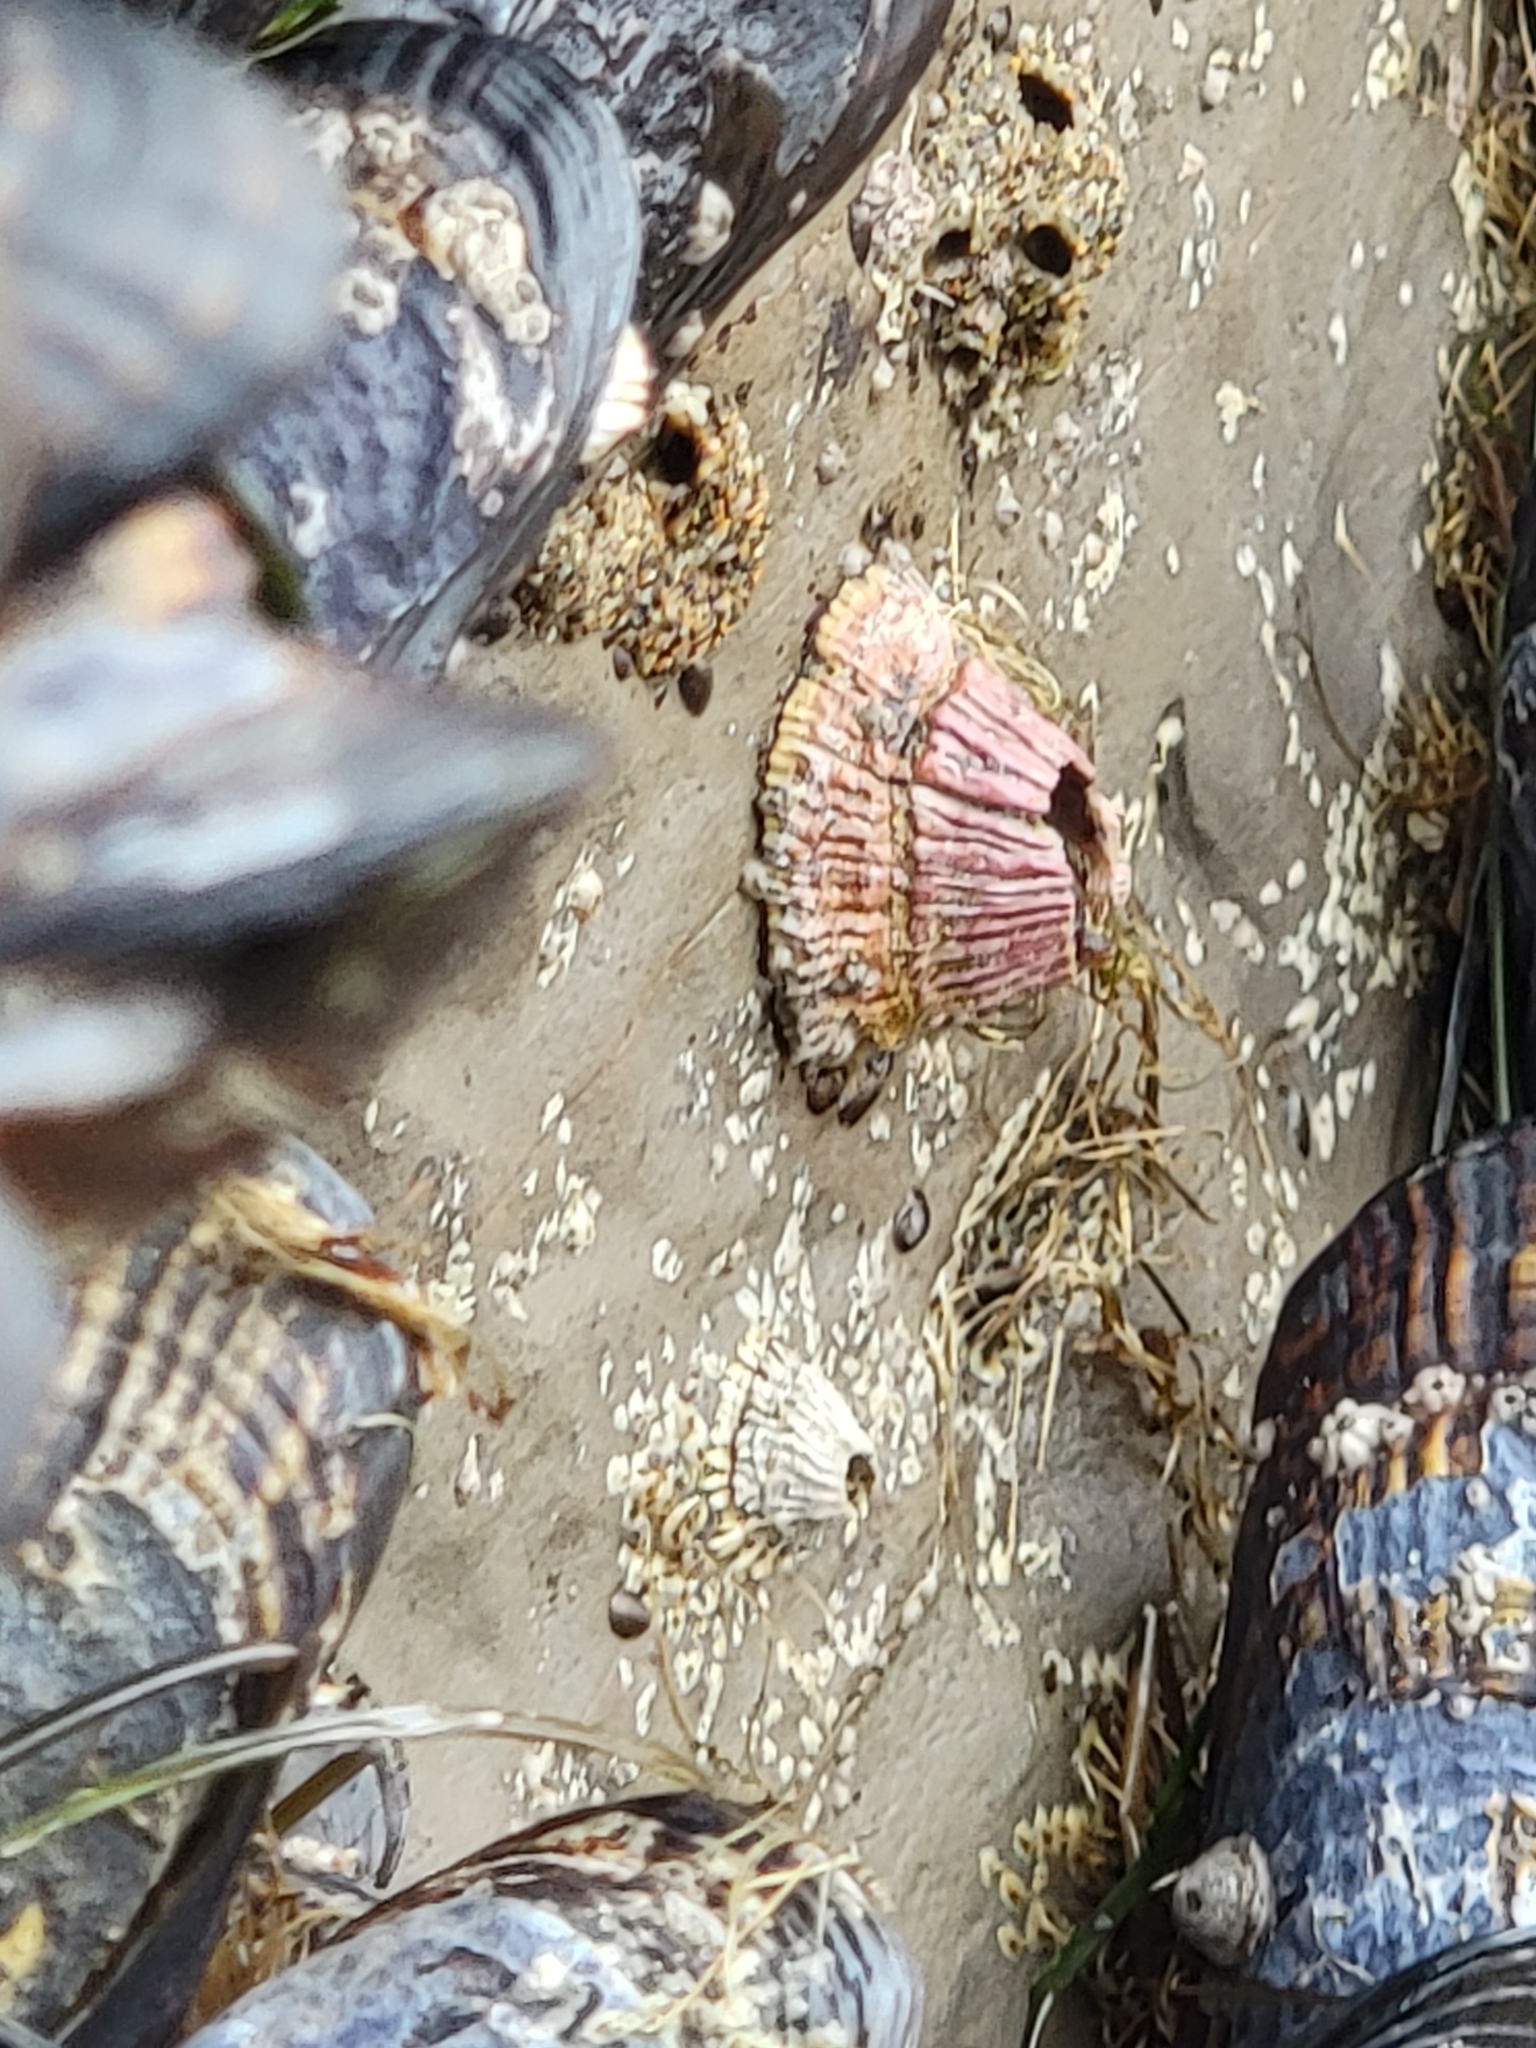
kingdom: Animalia
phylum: Arthropoda
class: Maxillopoda
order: Sessilia
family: Tetraclitidae
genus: Tetraclita
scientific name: Tetraclita rubescens
